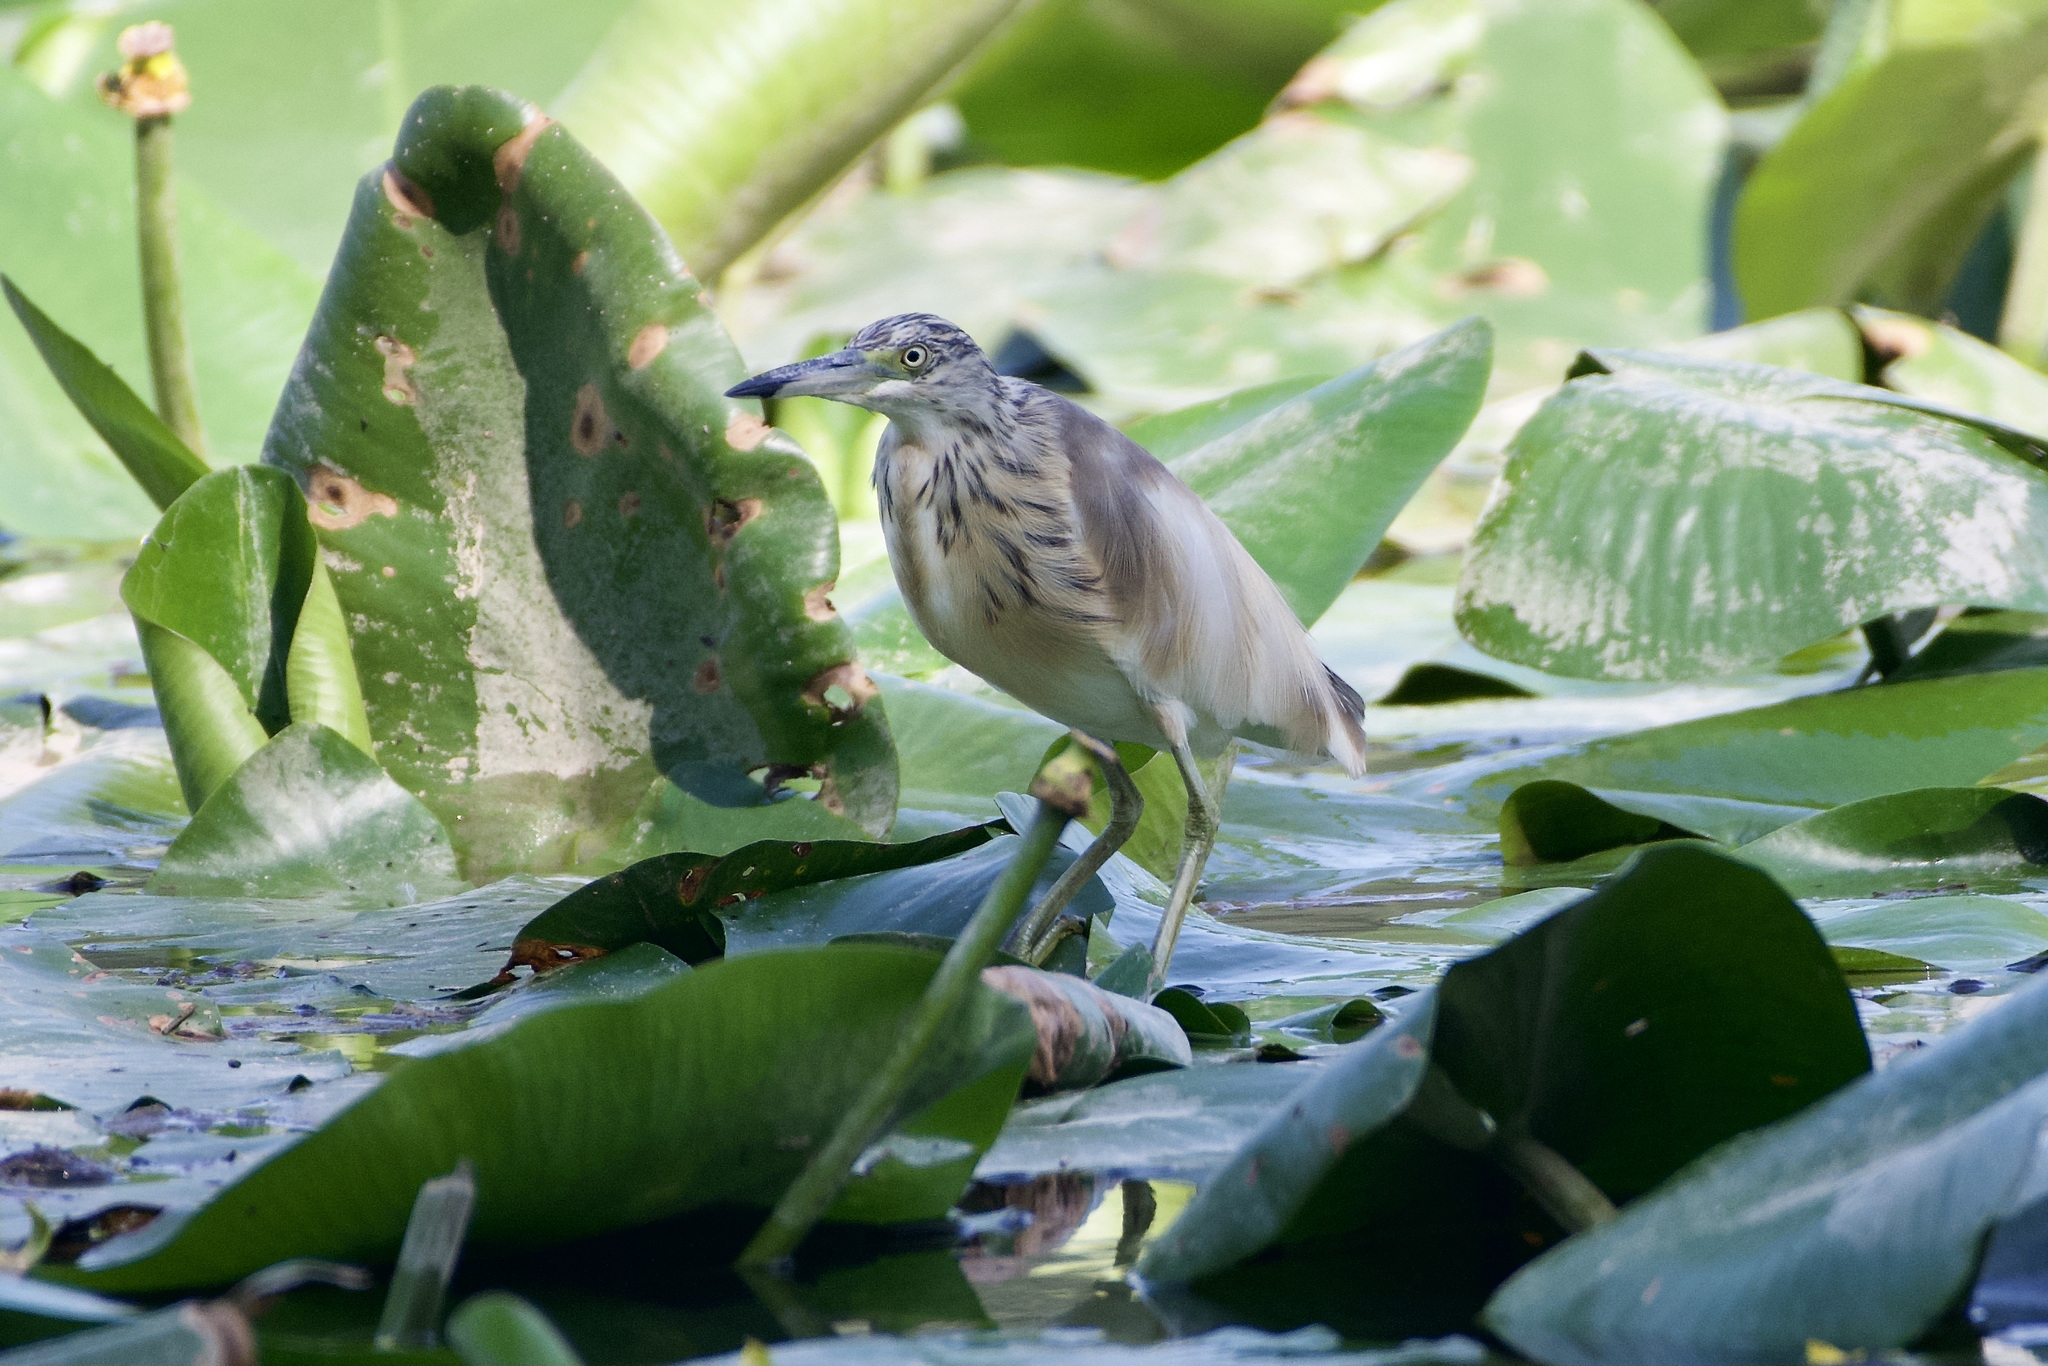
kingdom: Animalia
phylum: Chordata
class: Aves
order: Pelecaniformes
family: Ardeidae
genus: Ardeola
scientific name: Ardeola ralloides
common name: Squacco heron
